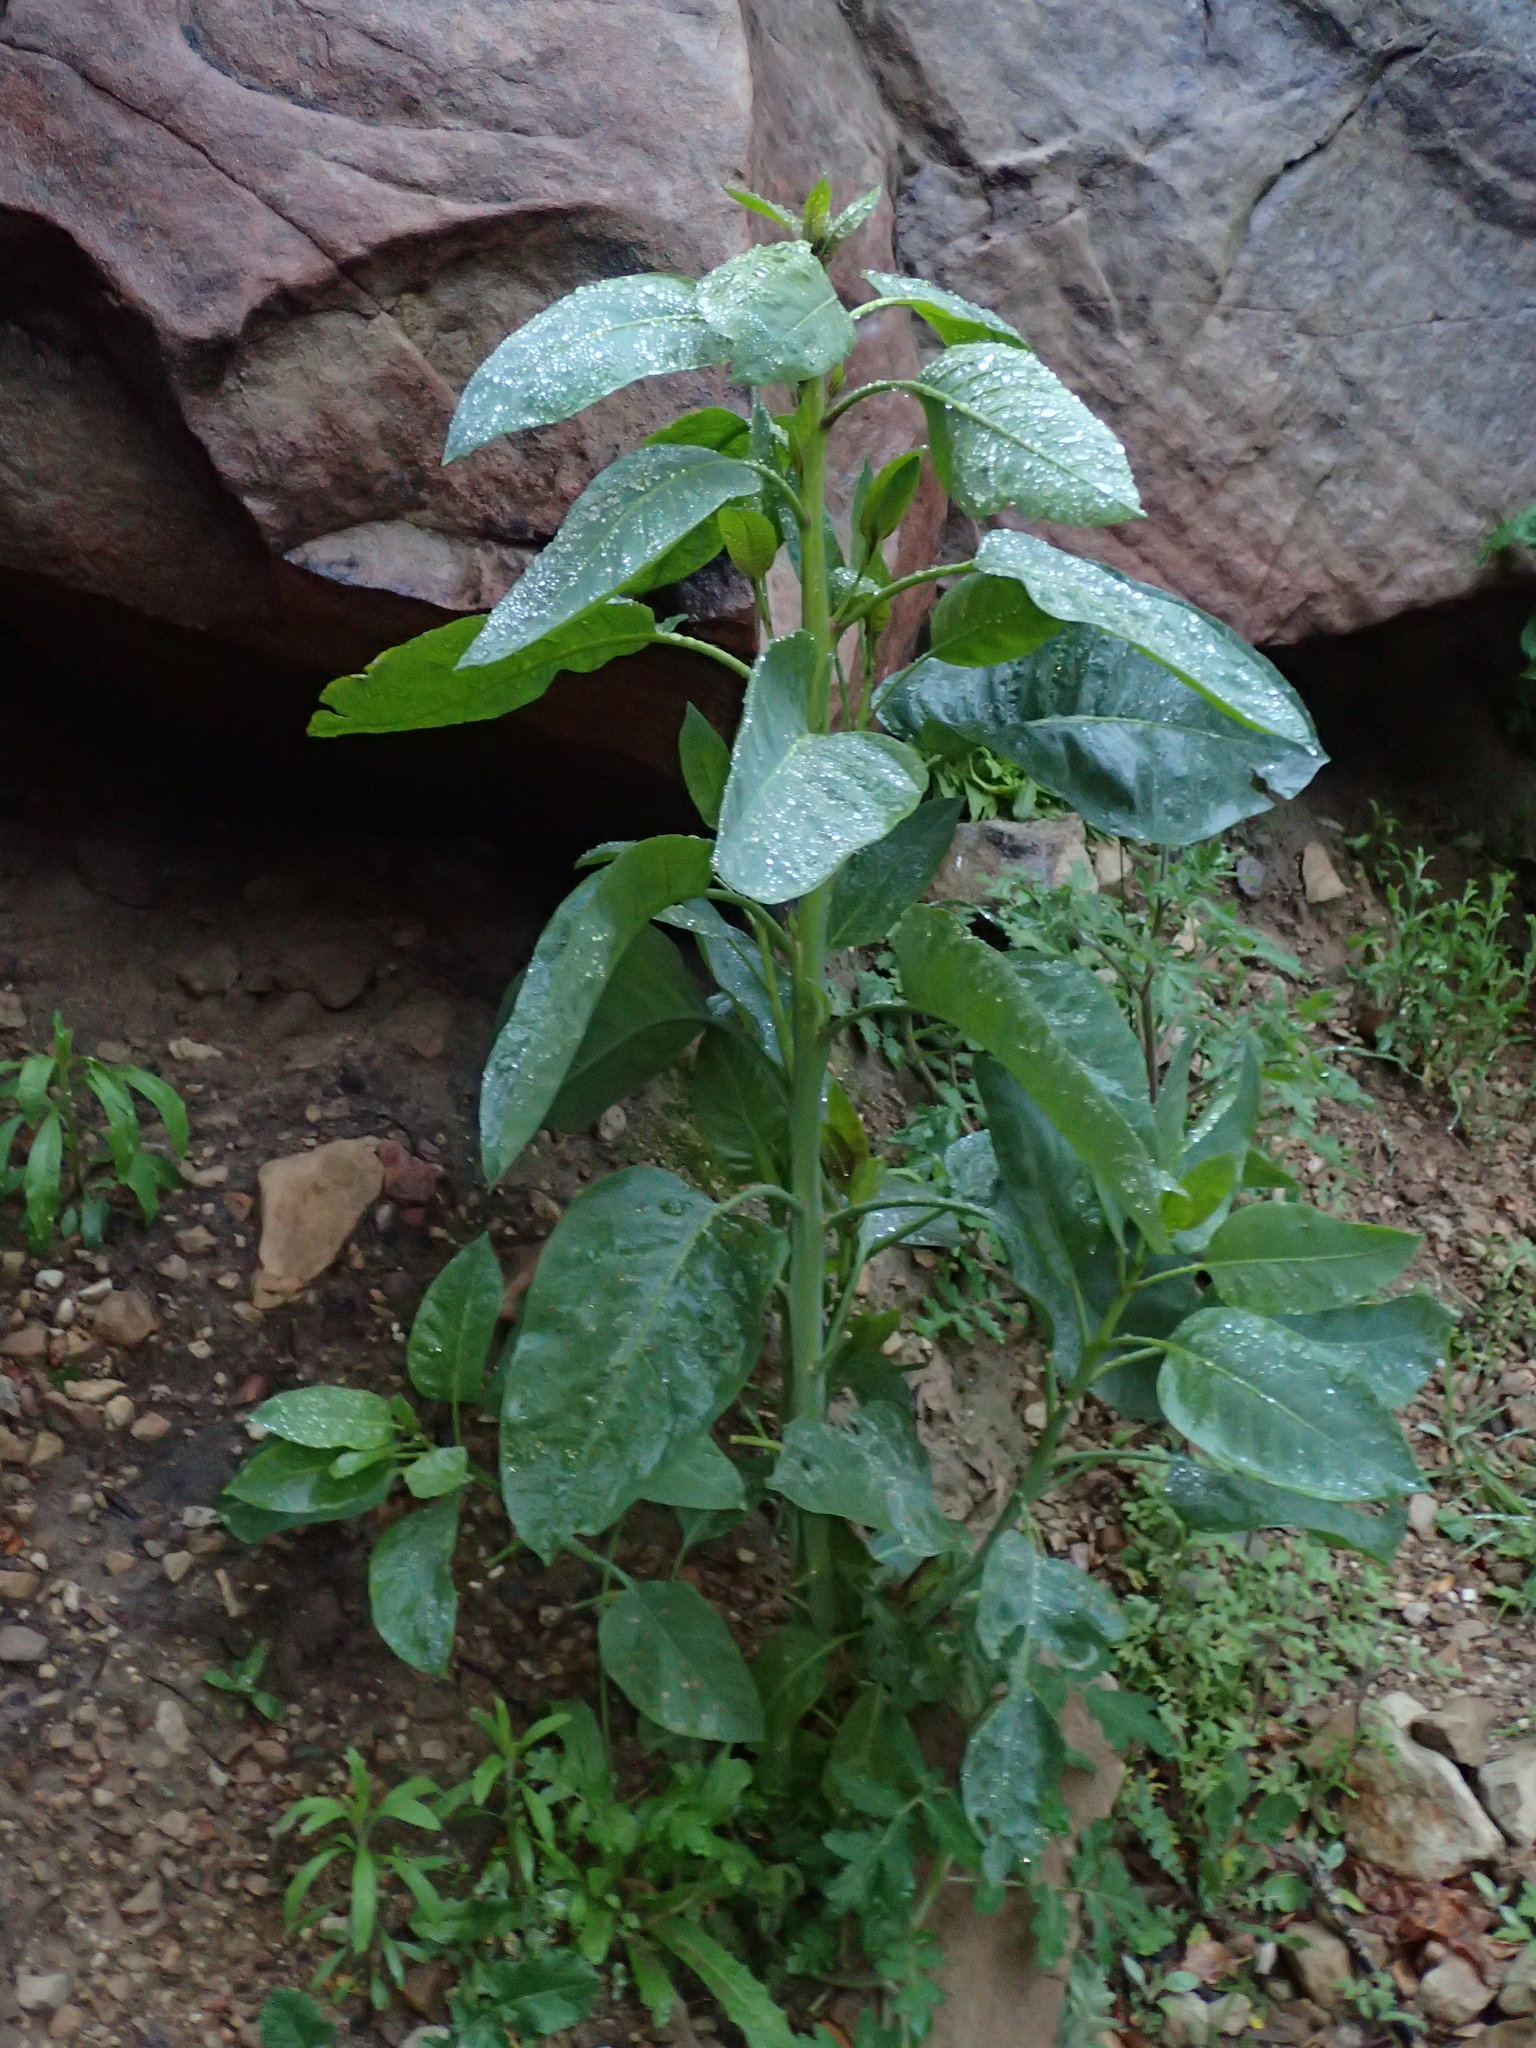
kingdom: Plantae
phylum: Tracheophyta
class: Magnoliopsida
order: Solanales
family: Solanaceae
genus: Nicotiana
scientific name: Nicotiana glauca
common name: Tree tobacco
